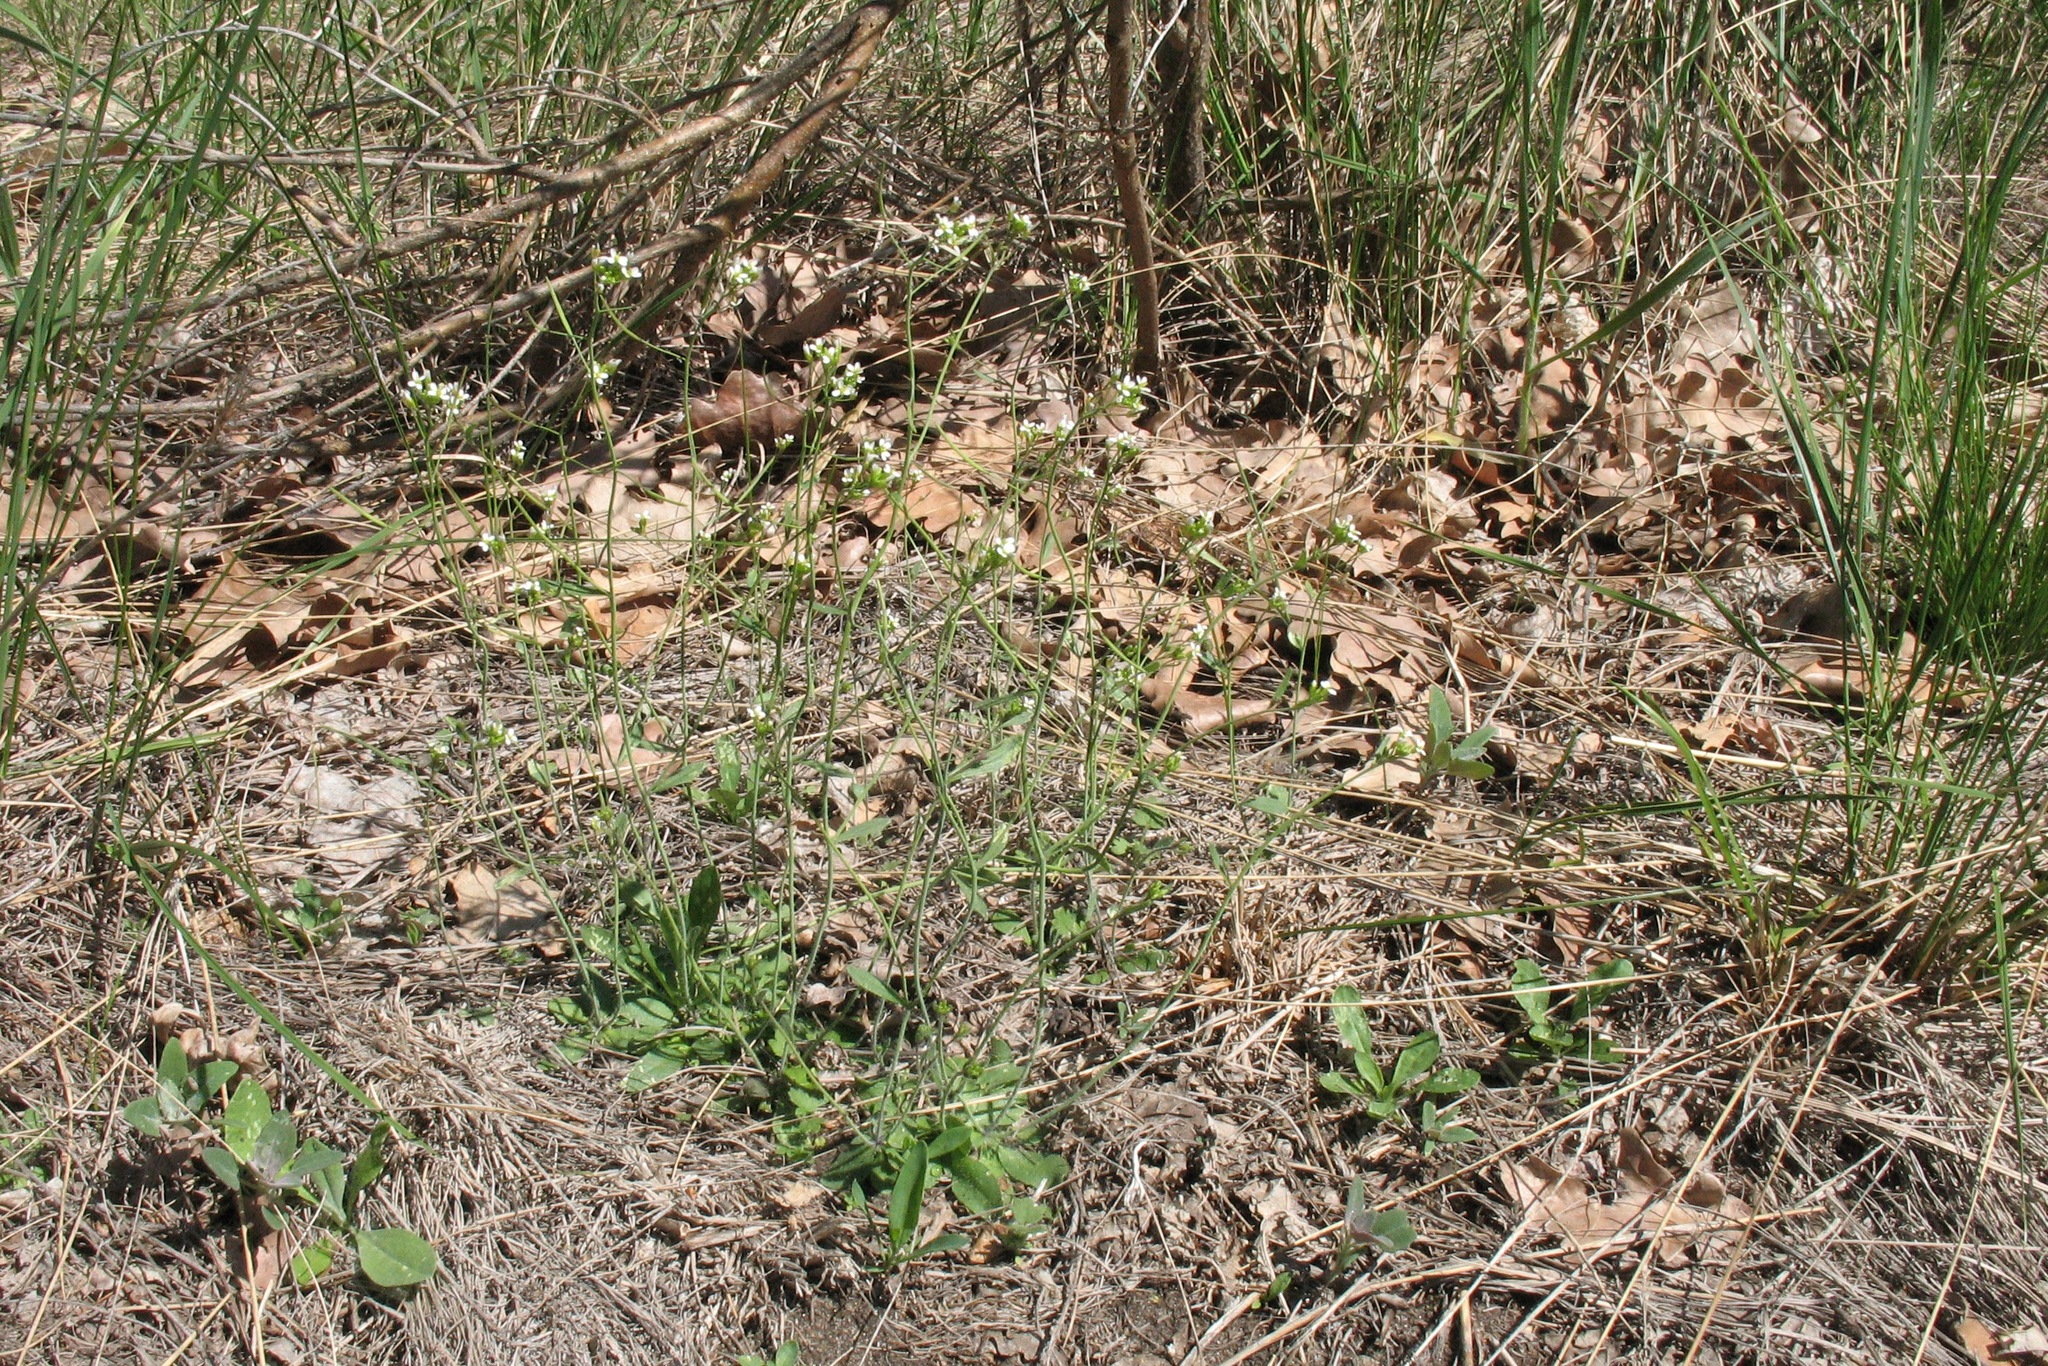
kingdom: Plantae
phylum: Tracheophyta
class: Magnoliopsida
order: Brassicales
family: Brassicaceae
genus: Arabidopsis
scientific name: Arabidopsis thaliana
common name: Thale cress
